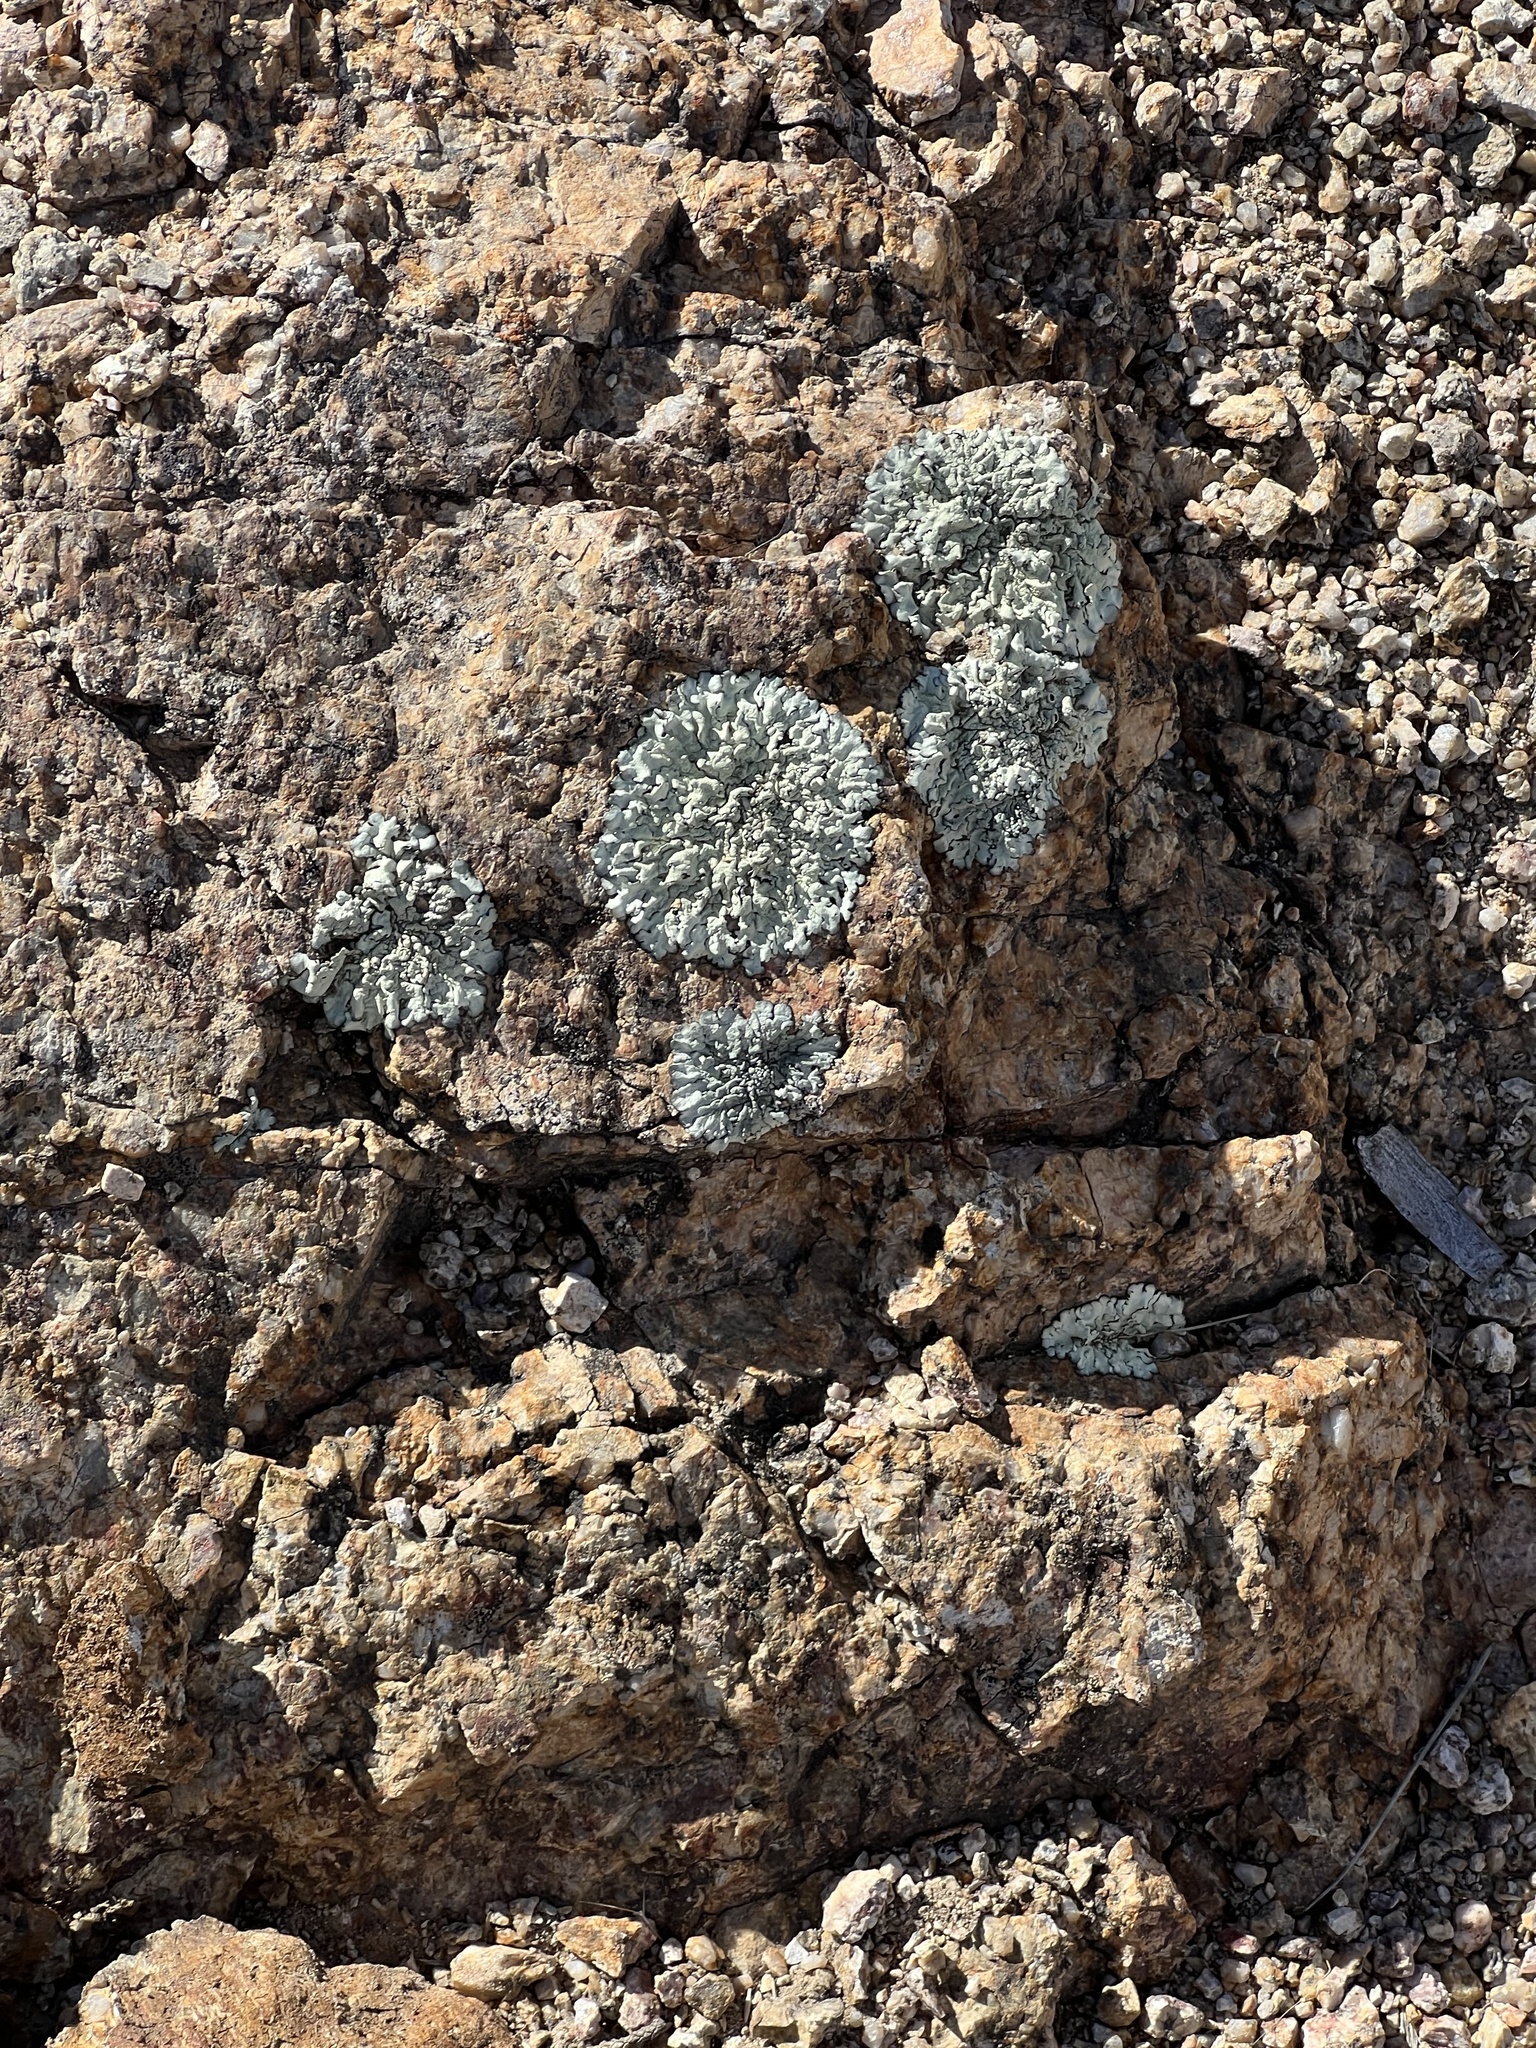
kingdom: Fungi
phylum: Ascomycota
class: Lecanoromycetes
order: Lecanorales
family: Parmeliaceae
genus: Xanthoparmelia
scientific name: Xanthoparmelia cumberlandia
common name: Cumberland rock shield
